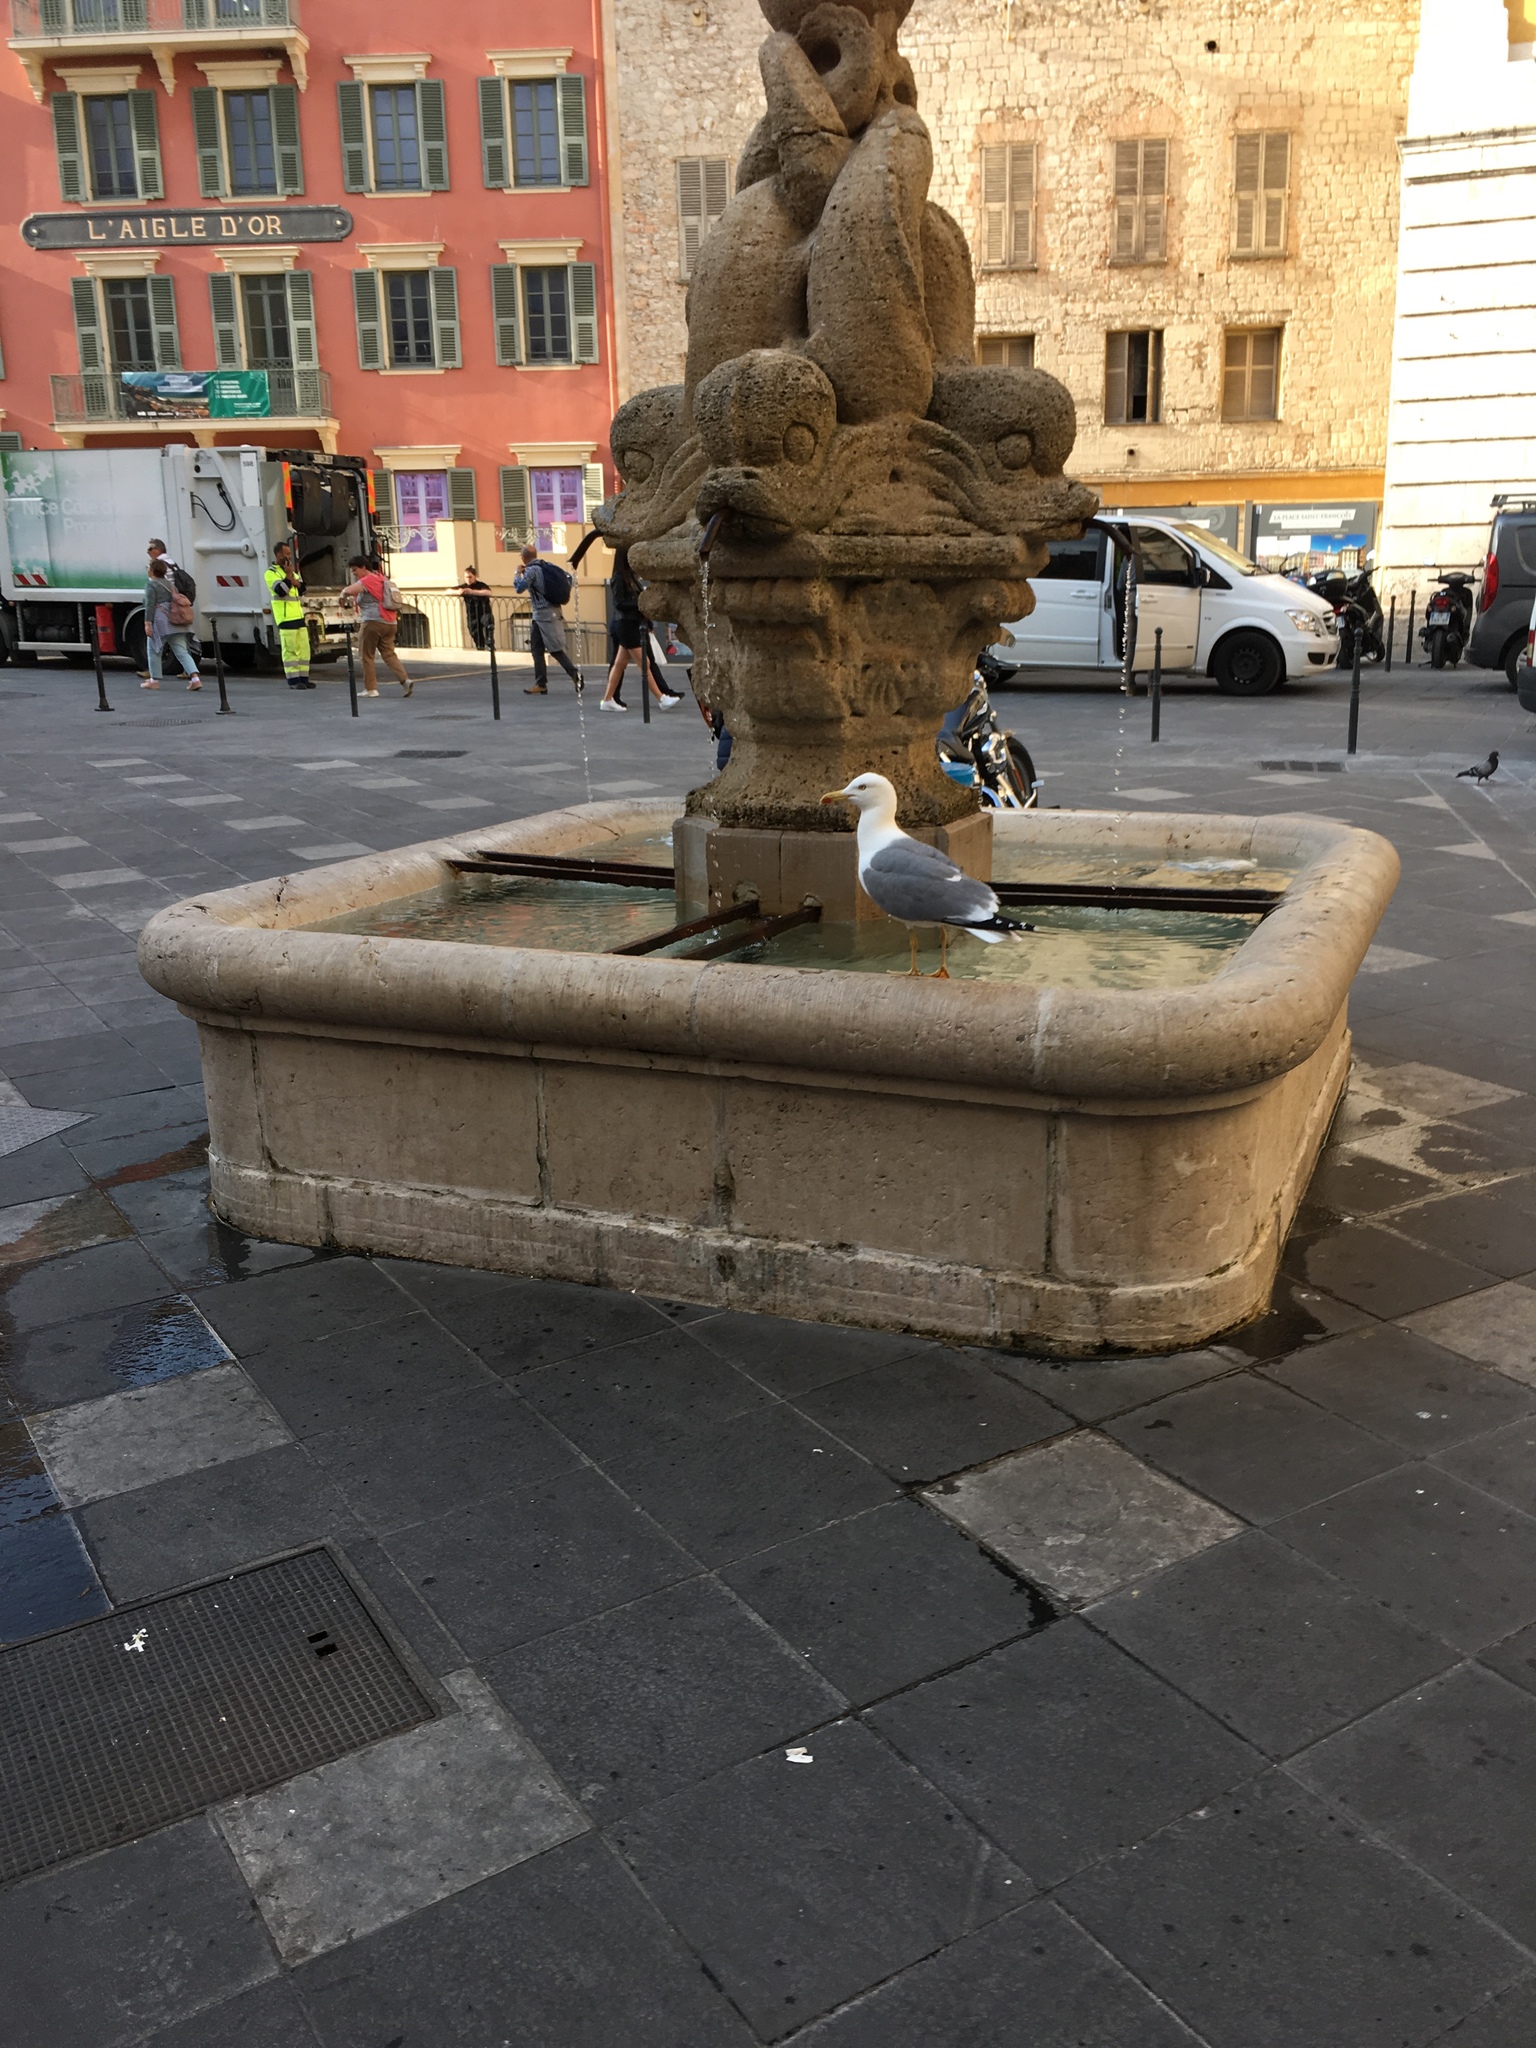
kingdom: Animalia
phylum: Chordata
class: Aves
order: Charadriiformes
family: Laridae
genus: Larus
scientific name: Larus michahellis
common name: Yellow-legged gull
